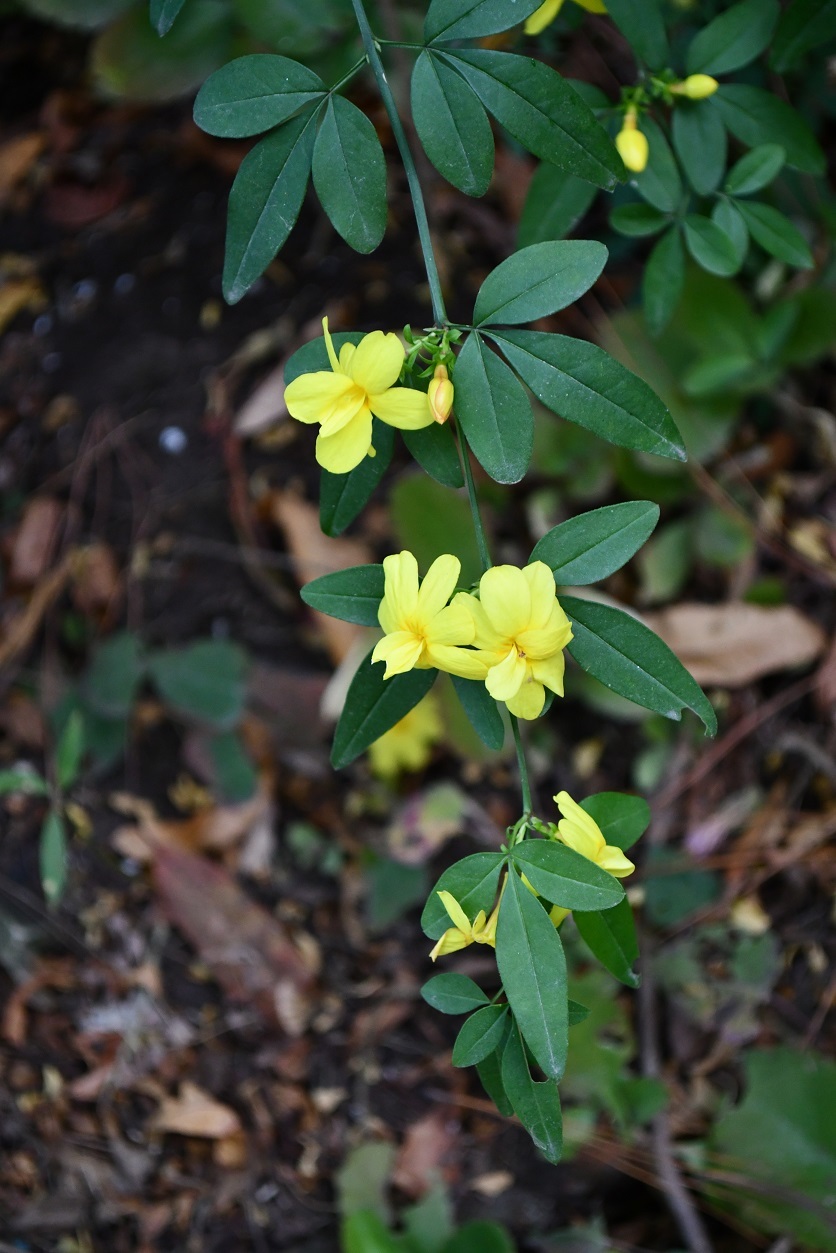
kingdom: Plantae
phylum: Tracheophyta
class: Magnoliopsida
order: Lamiales
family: Oleaceae
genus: Jasminum
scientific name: Jasminum mesnyi
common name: Japanese jasmine
